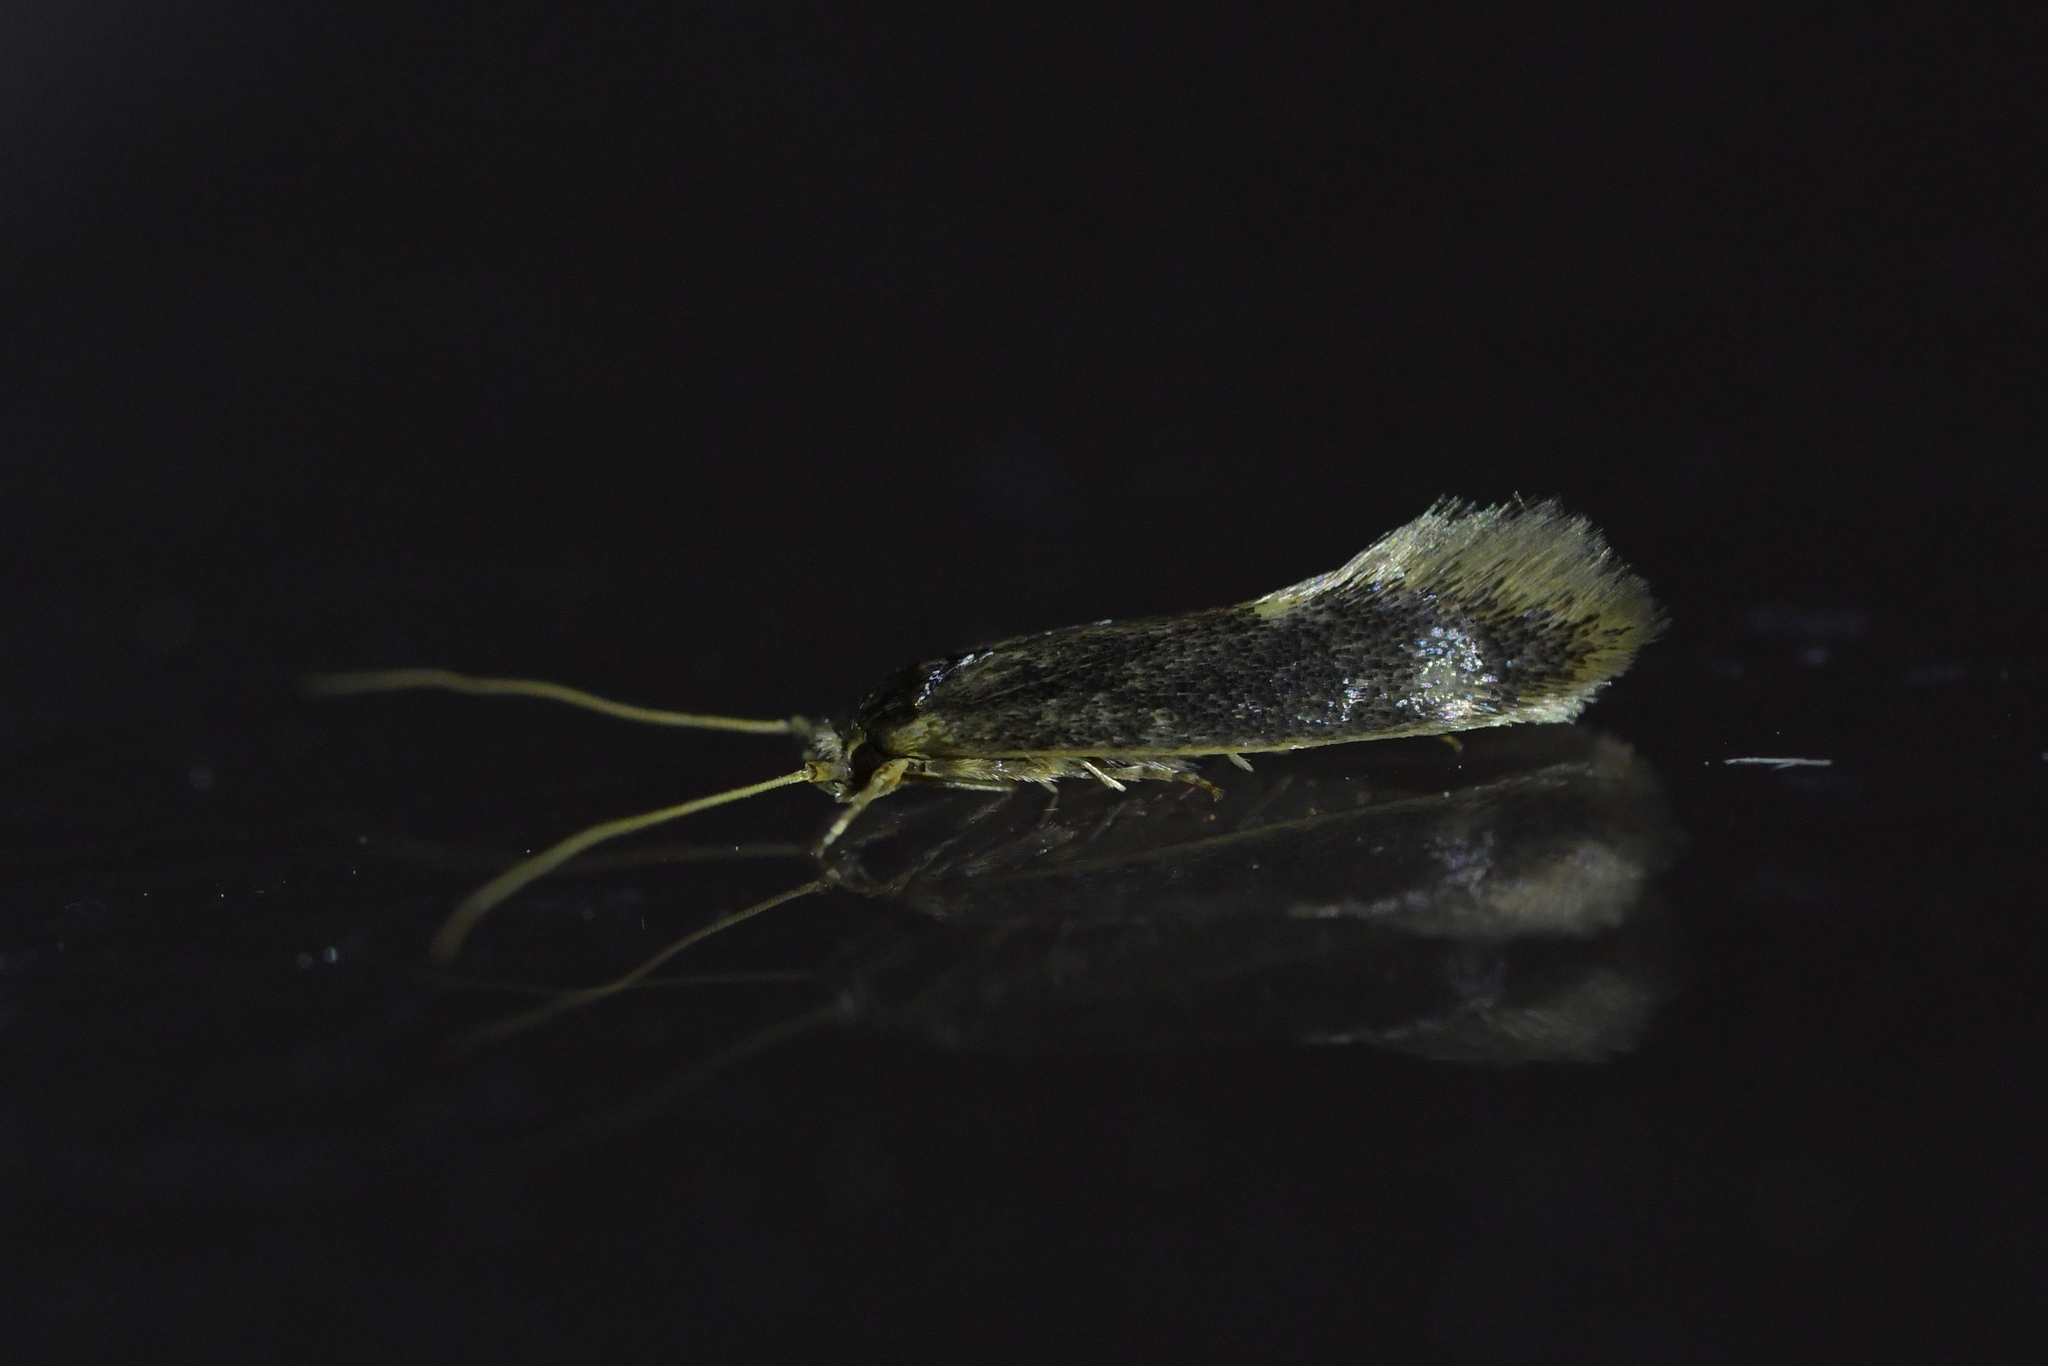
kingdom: Animalia
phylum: Arthropoda
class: Insecta
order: Lepidoptera
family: Tineidae
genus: Opogona
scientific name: Opogona omoscopa
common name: Moth
